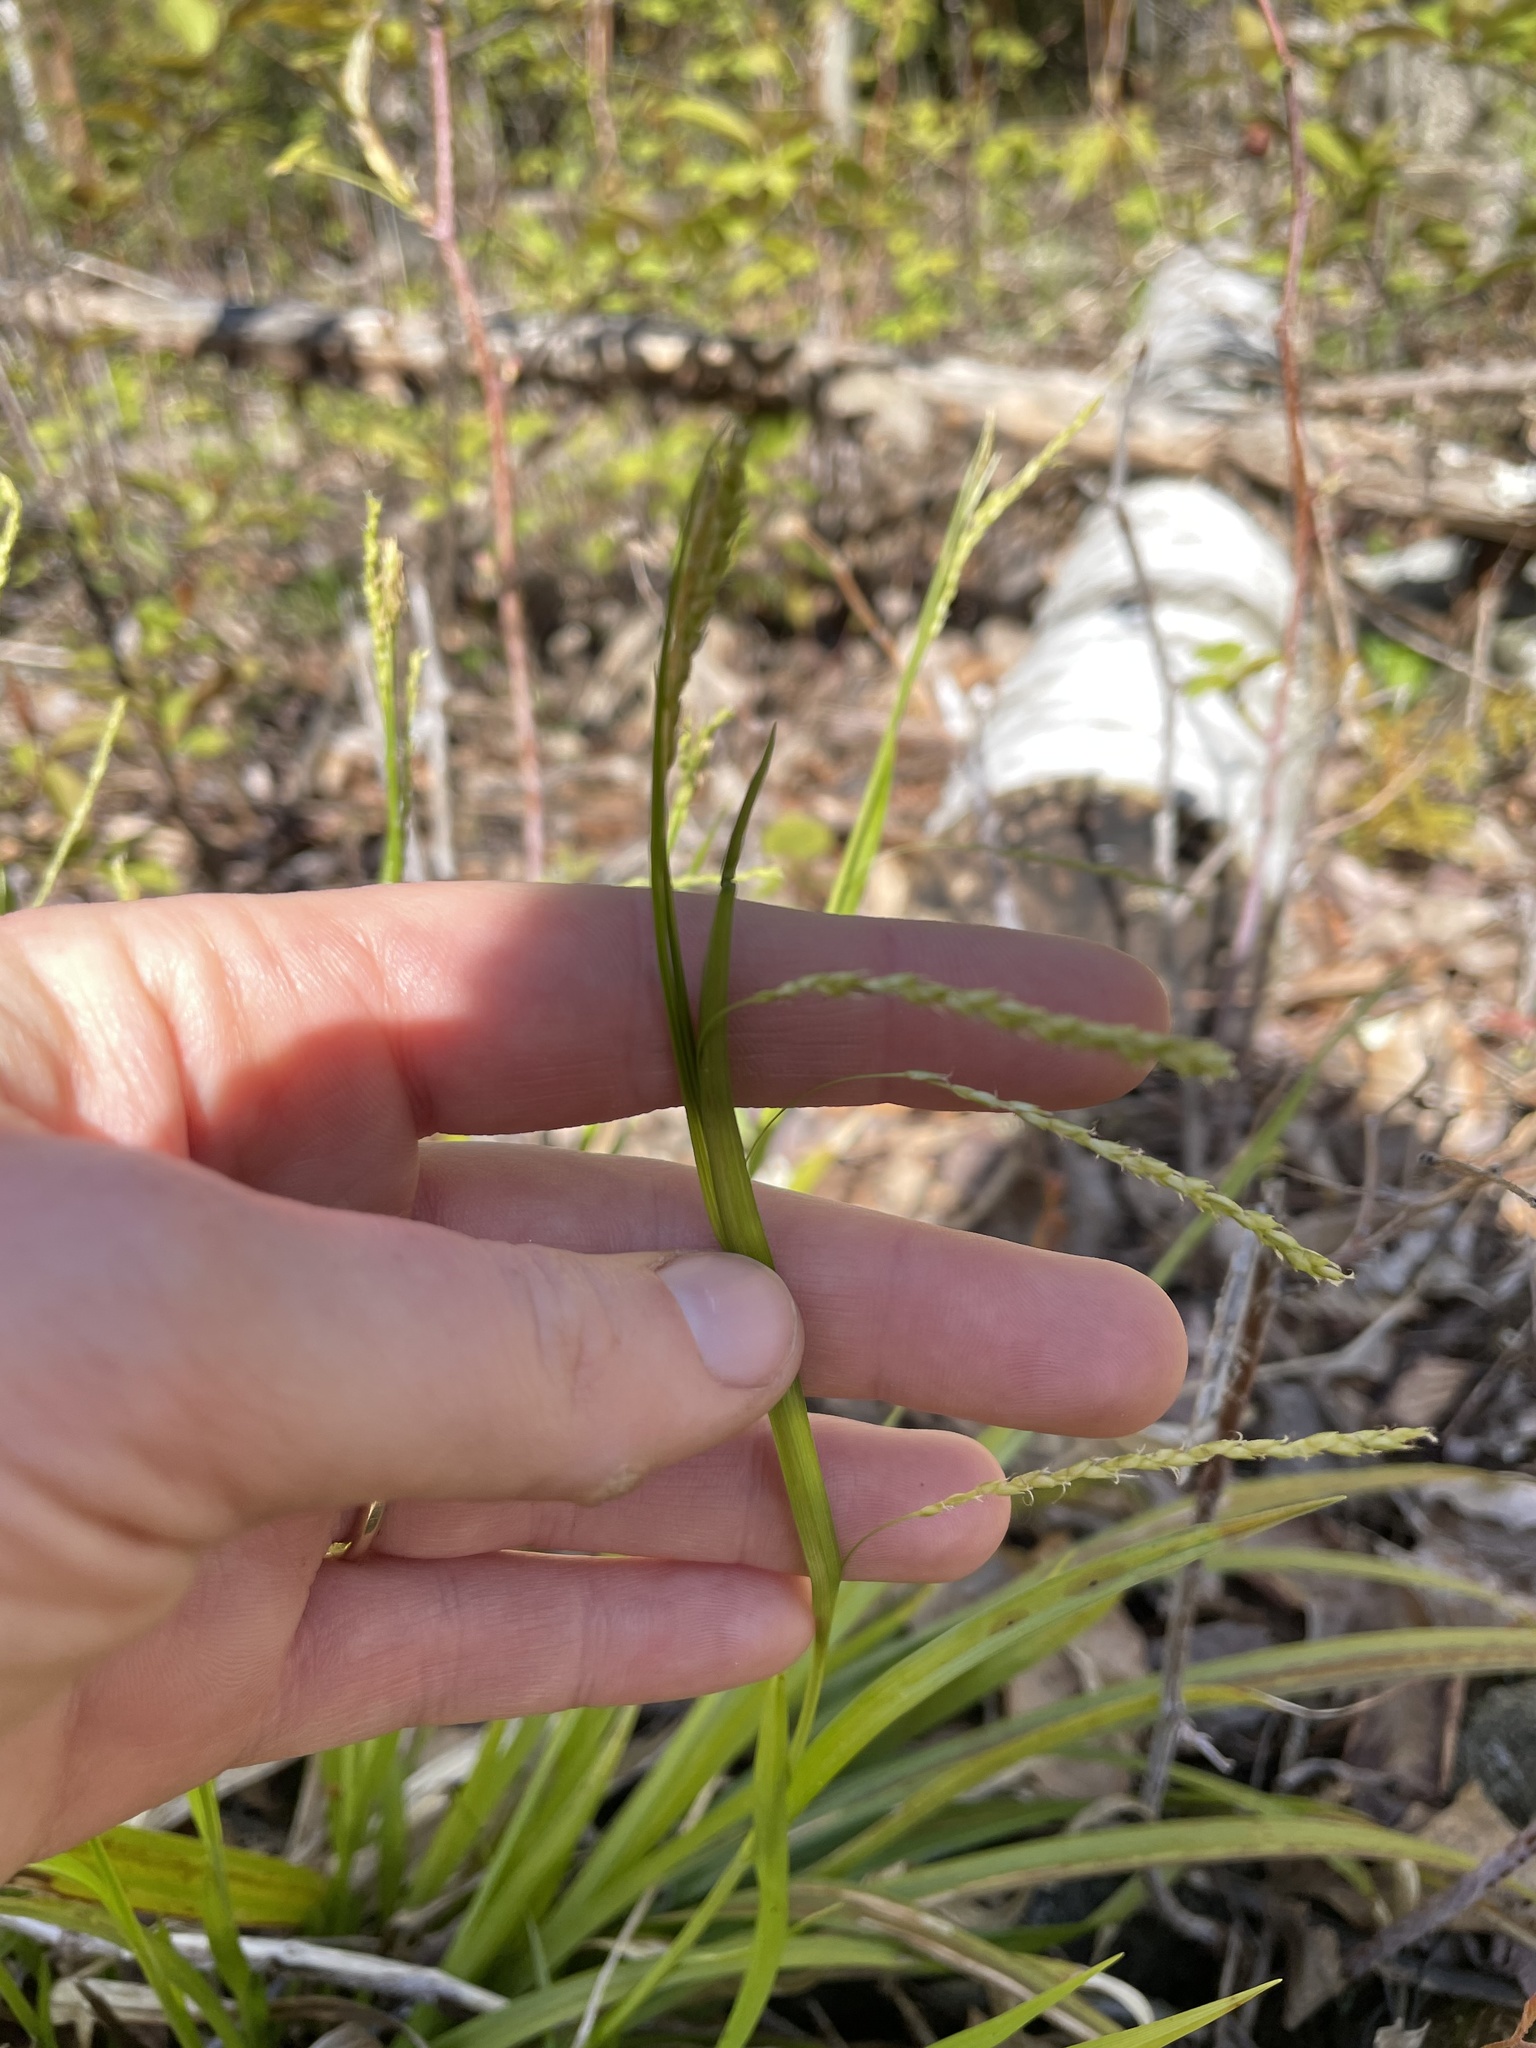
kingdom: Plantae
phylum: Tracheophyta
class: Liliopsida
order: Poales
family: Cyperaceae
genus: Carex
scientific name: Carex arctata
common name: Black sedge
